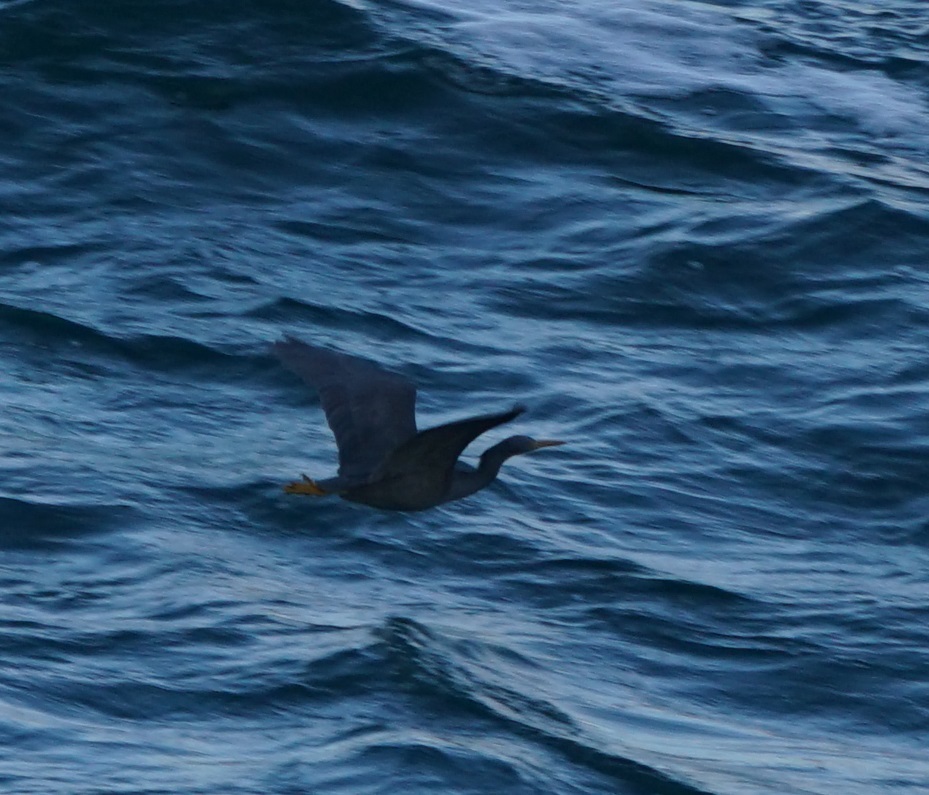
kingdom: Animalia
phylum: Chordata
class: Aves
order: Pelecaniformes
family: Ardeidae
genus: Egretta
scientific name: Egretta sacra
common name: Pacific reef heron
